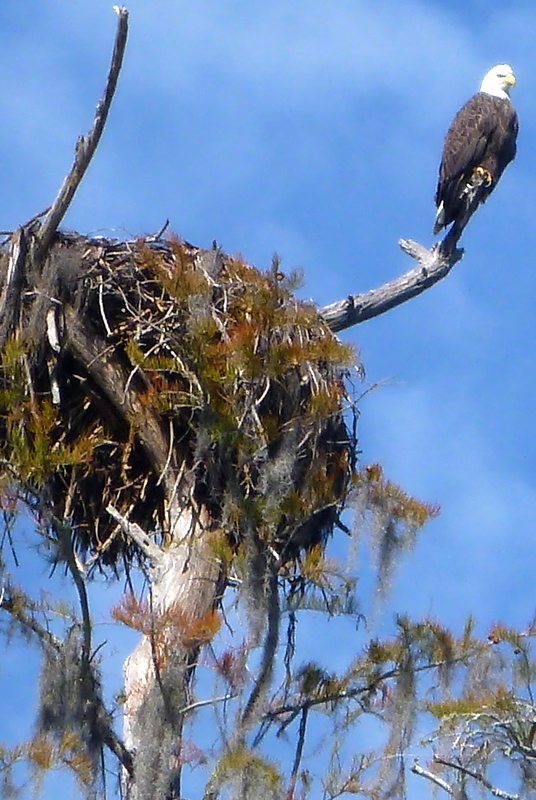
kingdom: Animalia
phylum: Chordata
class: Aves
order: Accipitriformes
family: Accipitridae
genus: Haliaeetus
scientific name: Haliaeetus leucocephalus
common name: Bald eagle
